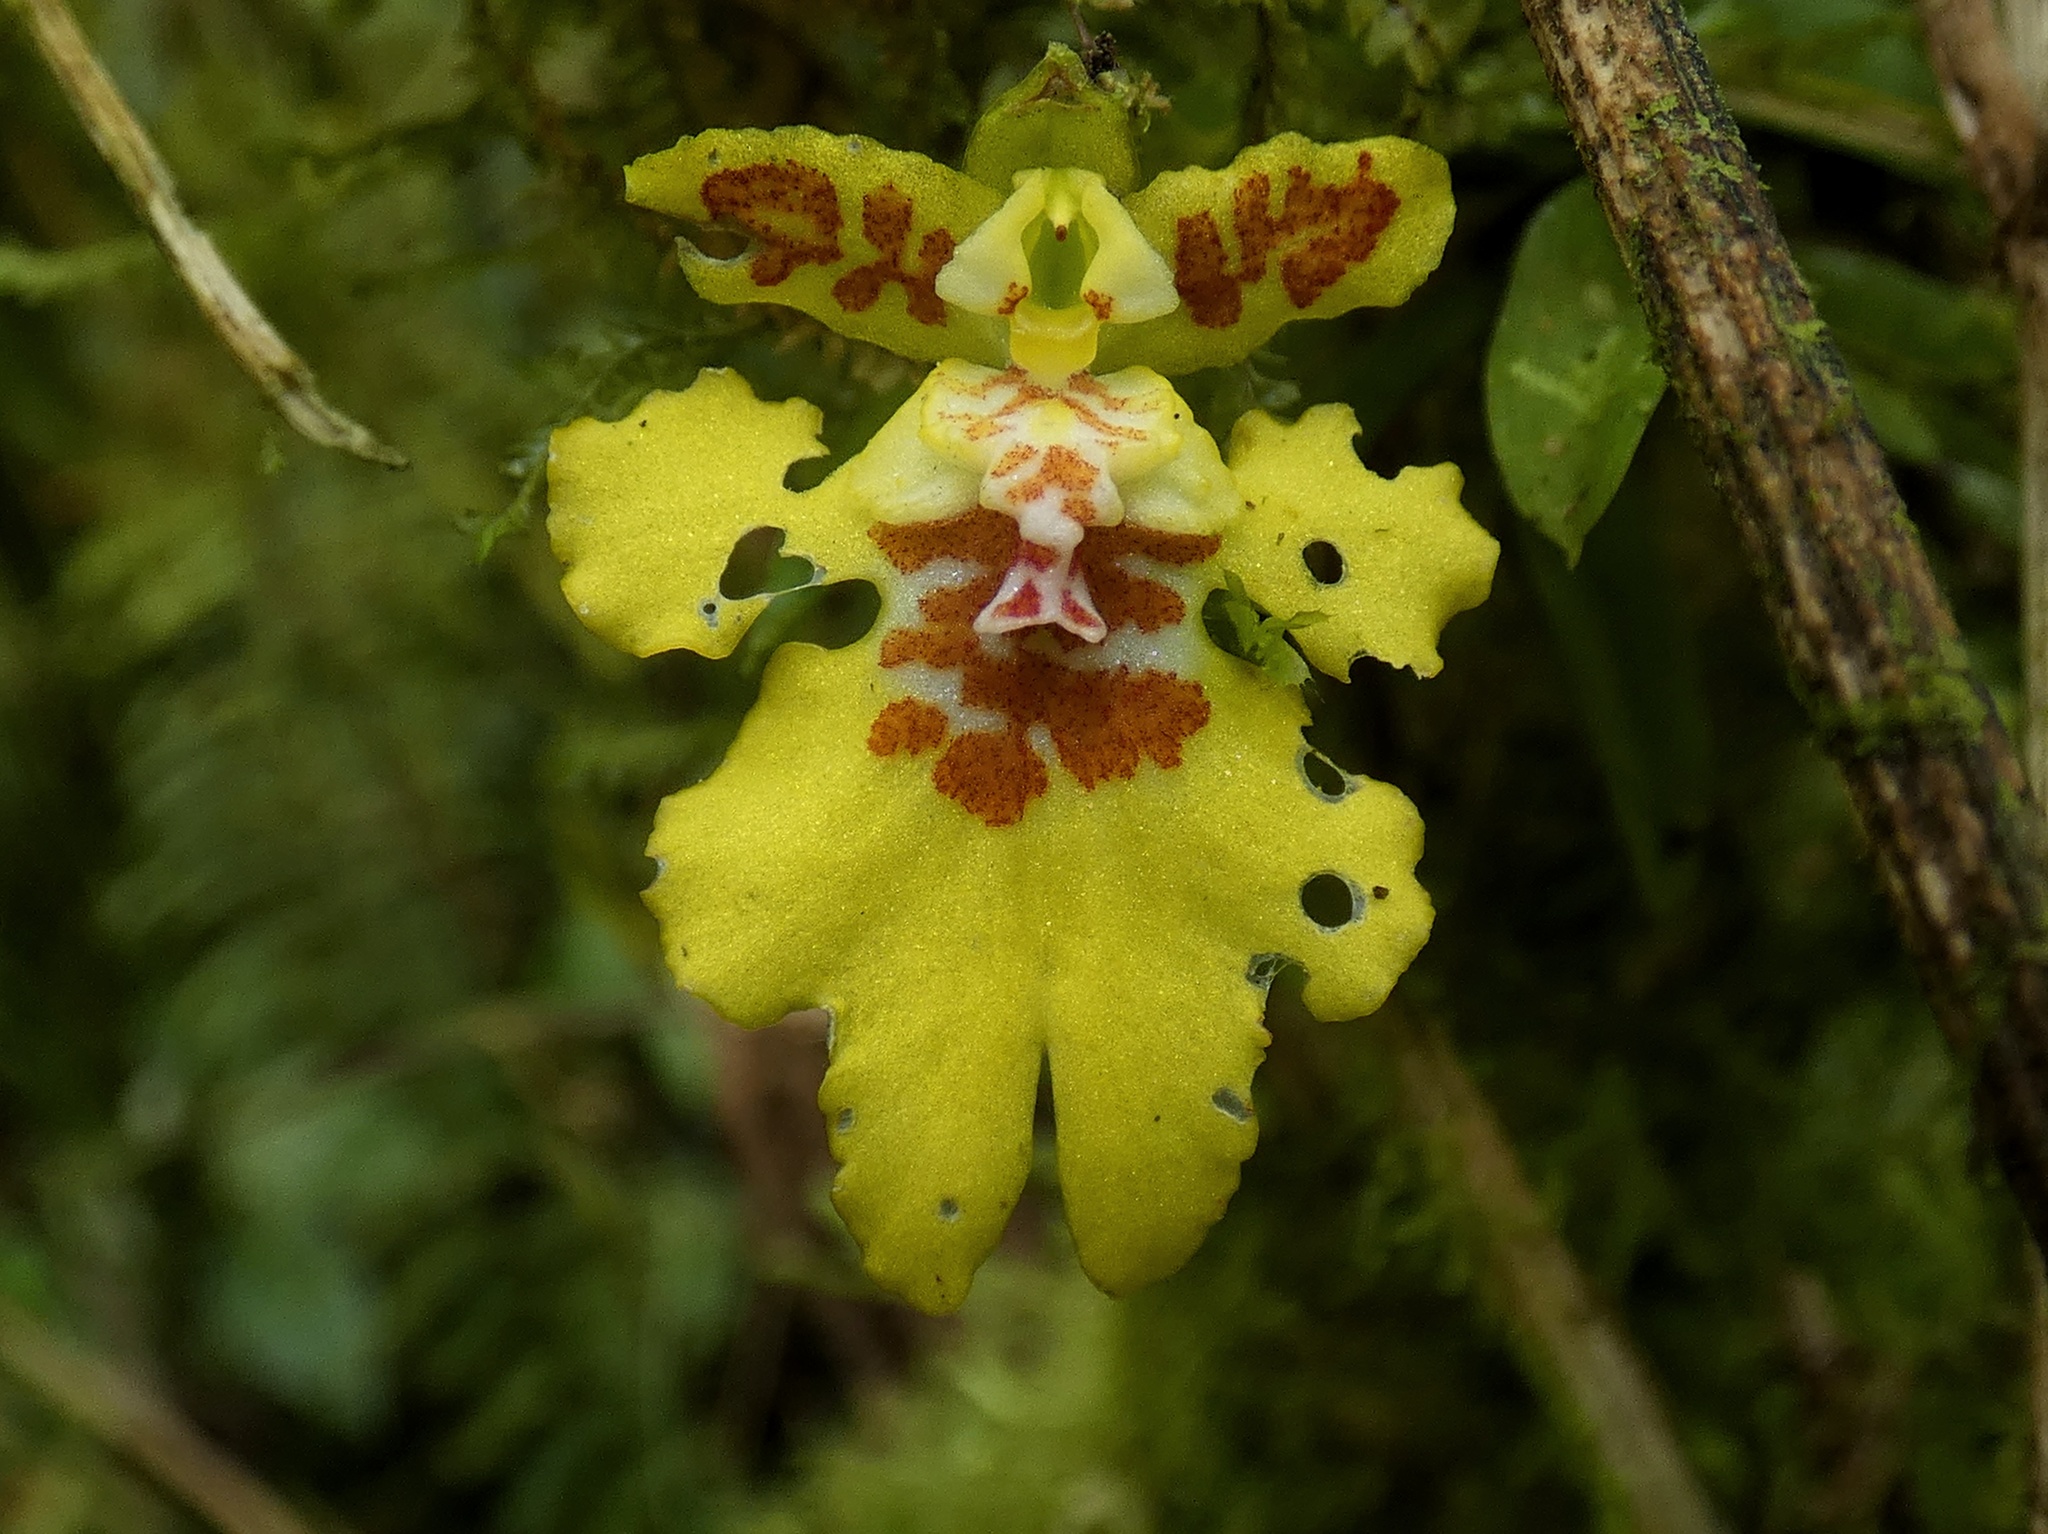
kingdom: Plantae
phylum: Tracheophyta
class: Liliopsida
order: Asparagales
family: Orchidaceae
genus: Erycina
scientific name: Erycina crista-galli
